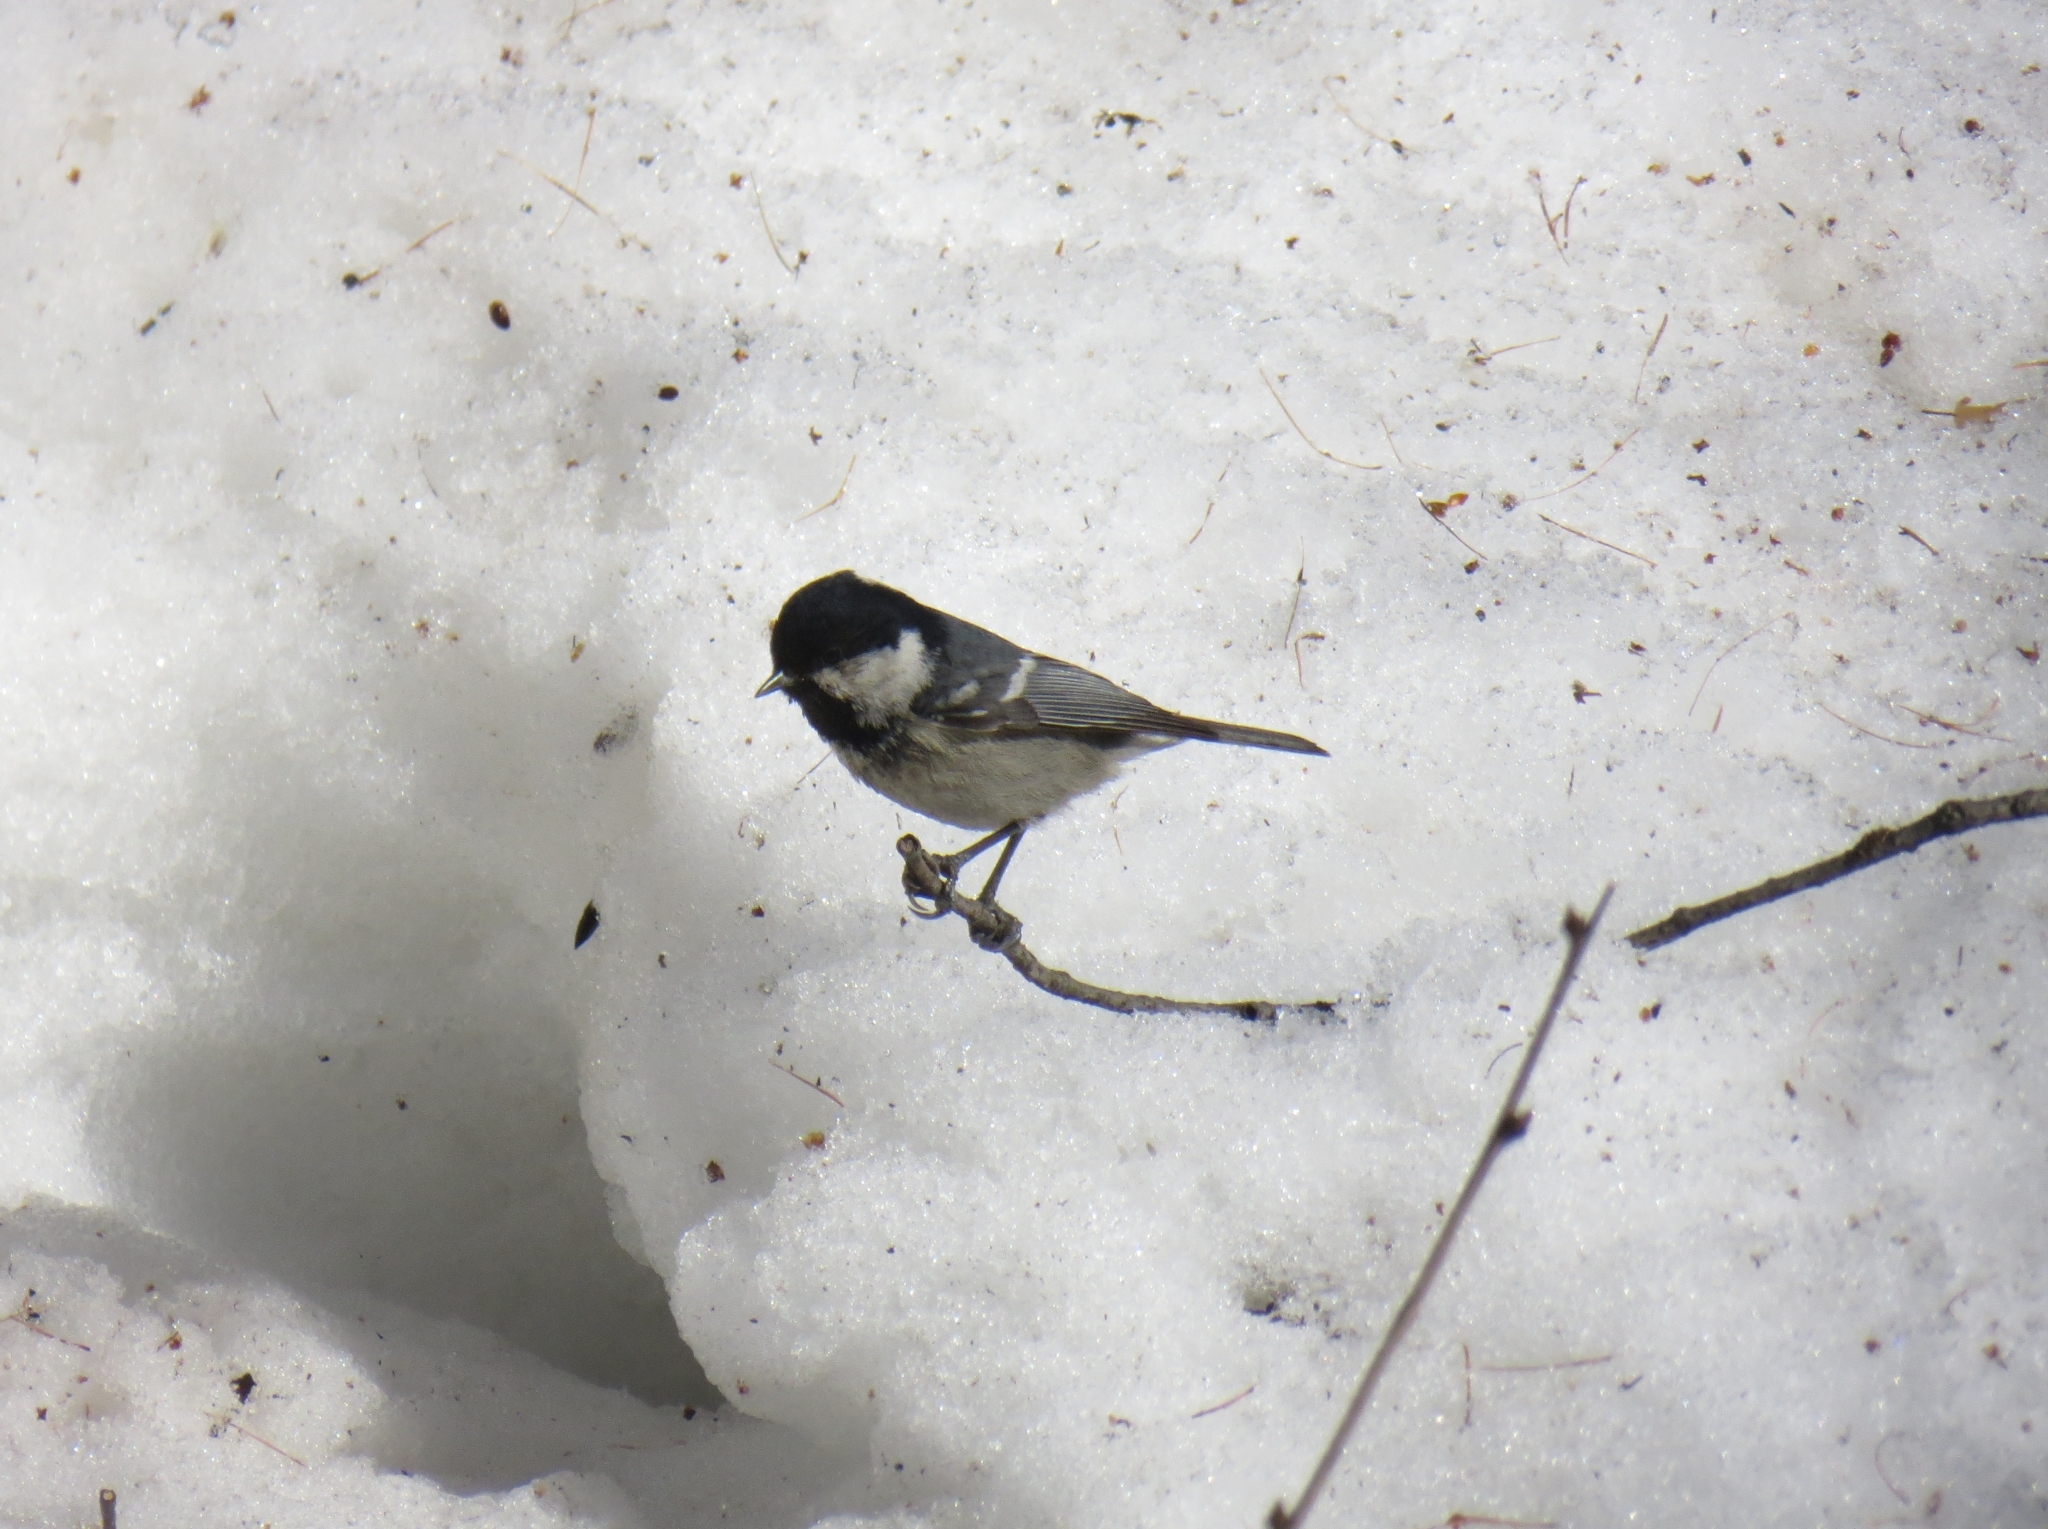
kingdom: Animalia
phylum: Chordata
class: Aves
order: Passeriformes
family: Paridae
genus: Periparus
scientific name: Periparus ater
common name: Coal tit
